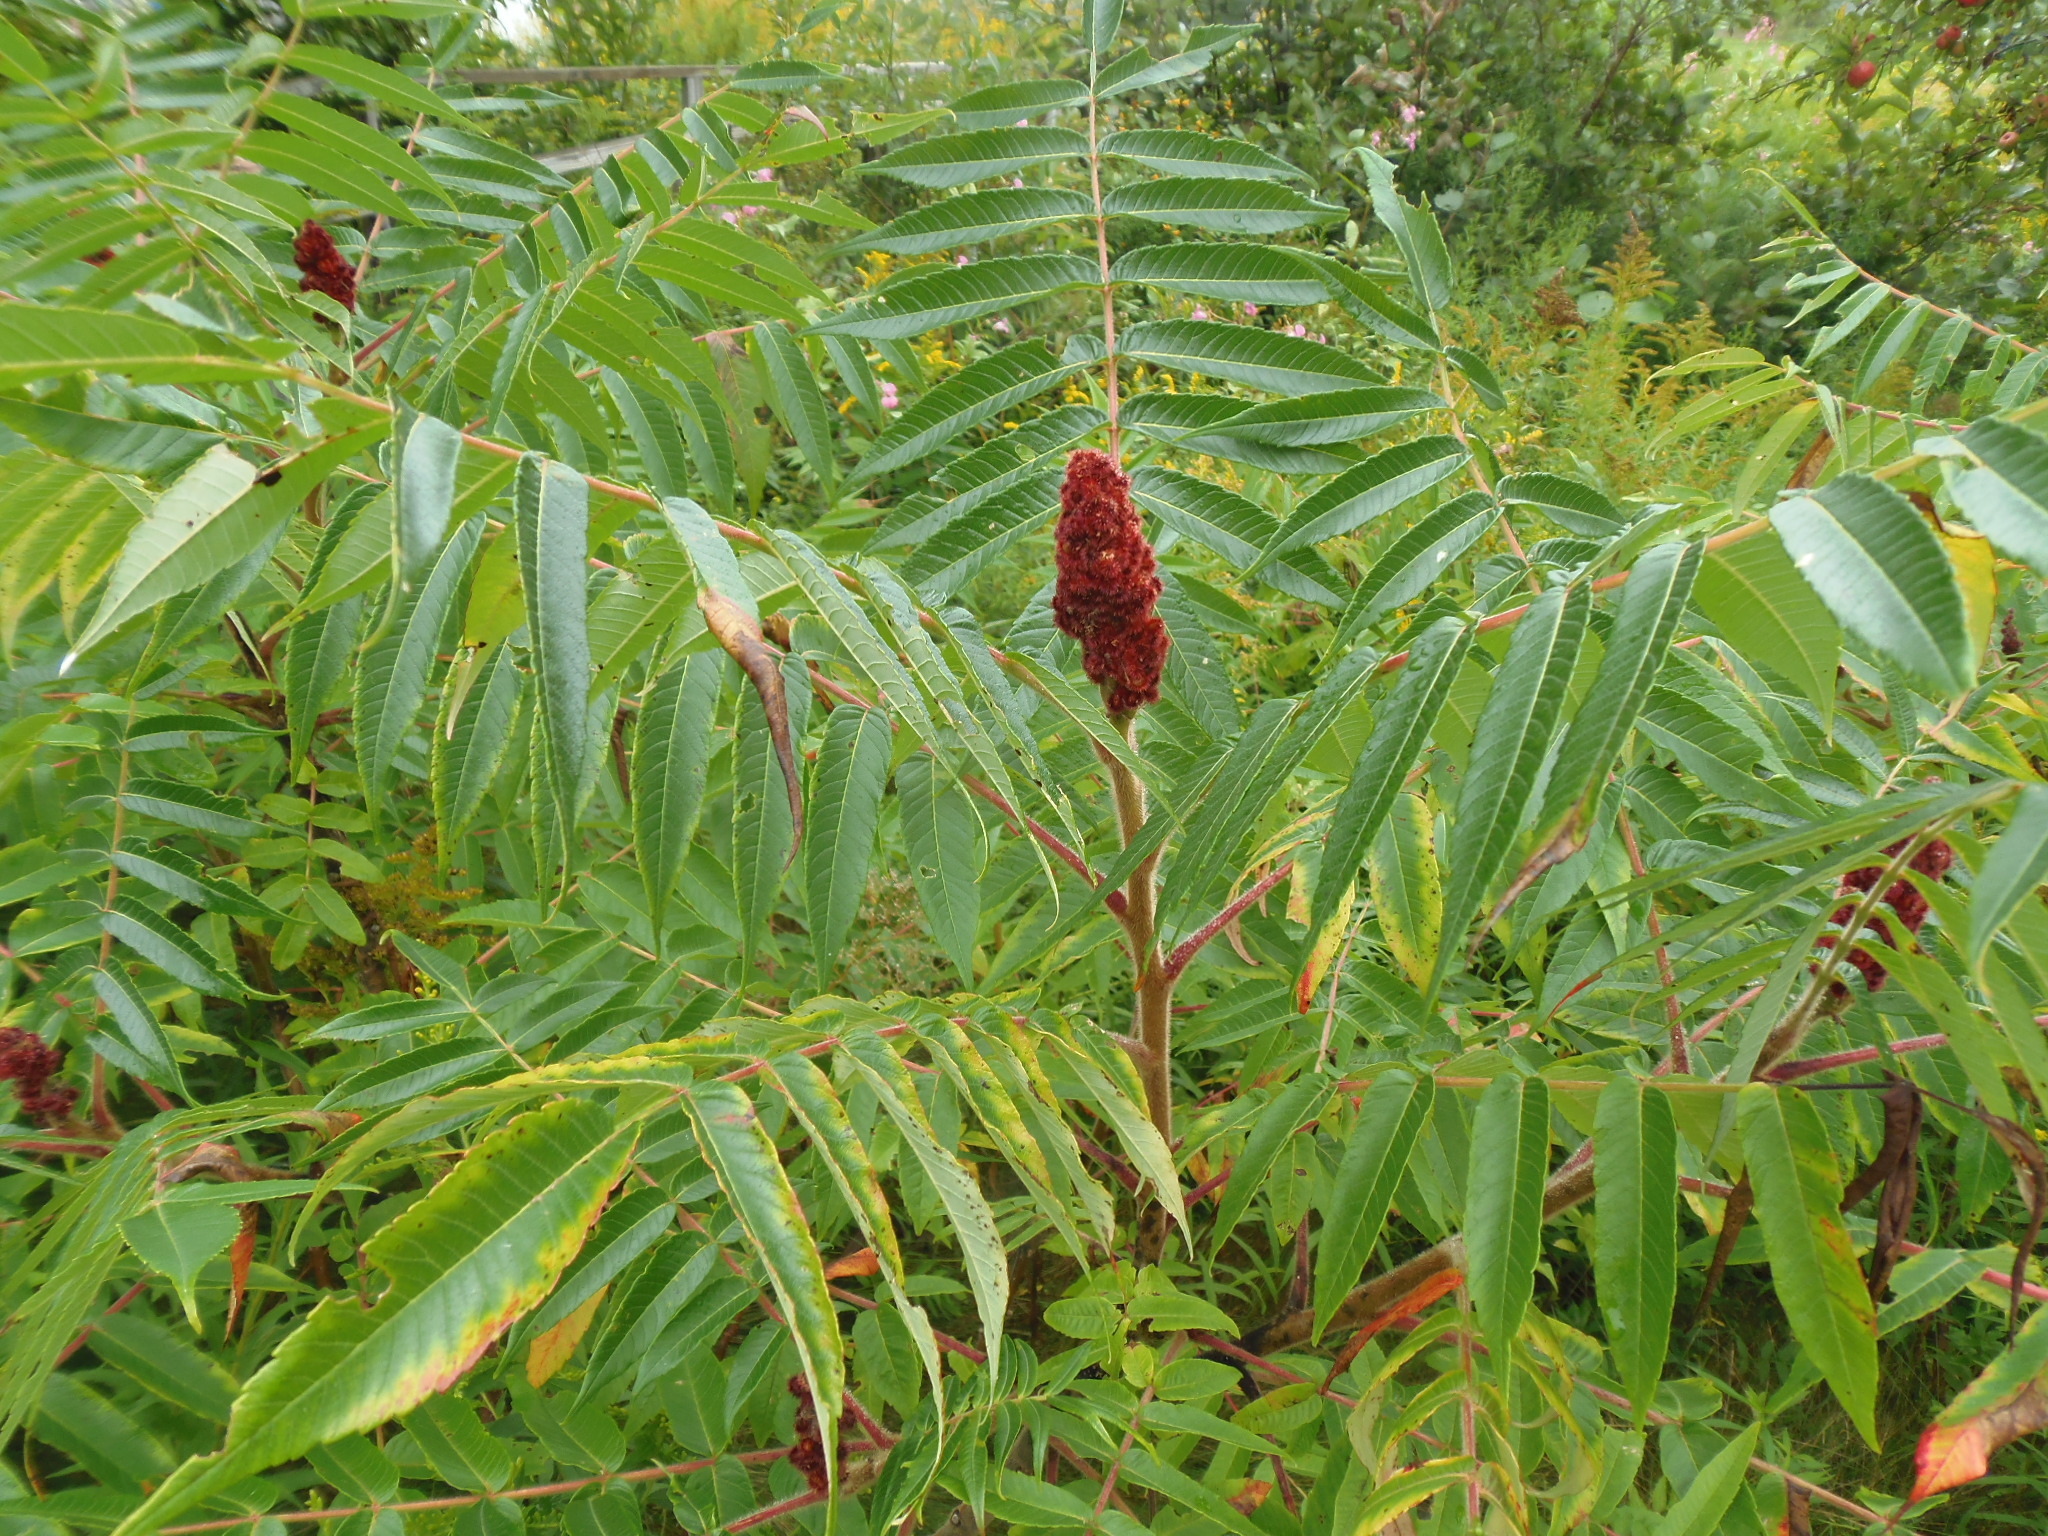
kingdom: Plantae
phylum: Tracheophyta
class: Magnoliopsida
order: Sapindales
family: Anacardiaceae
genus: Rhus
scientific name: Rhus typhina
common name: Staghorn sumac
